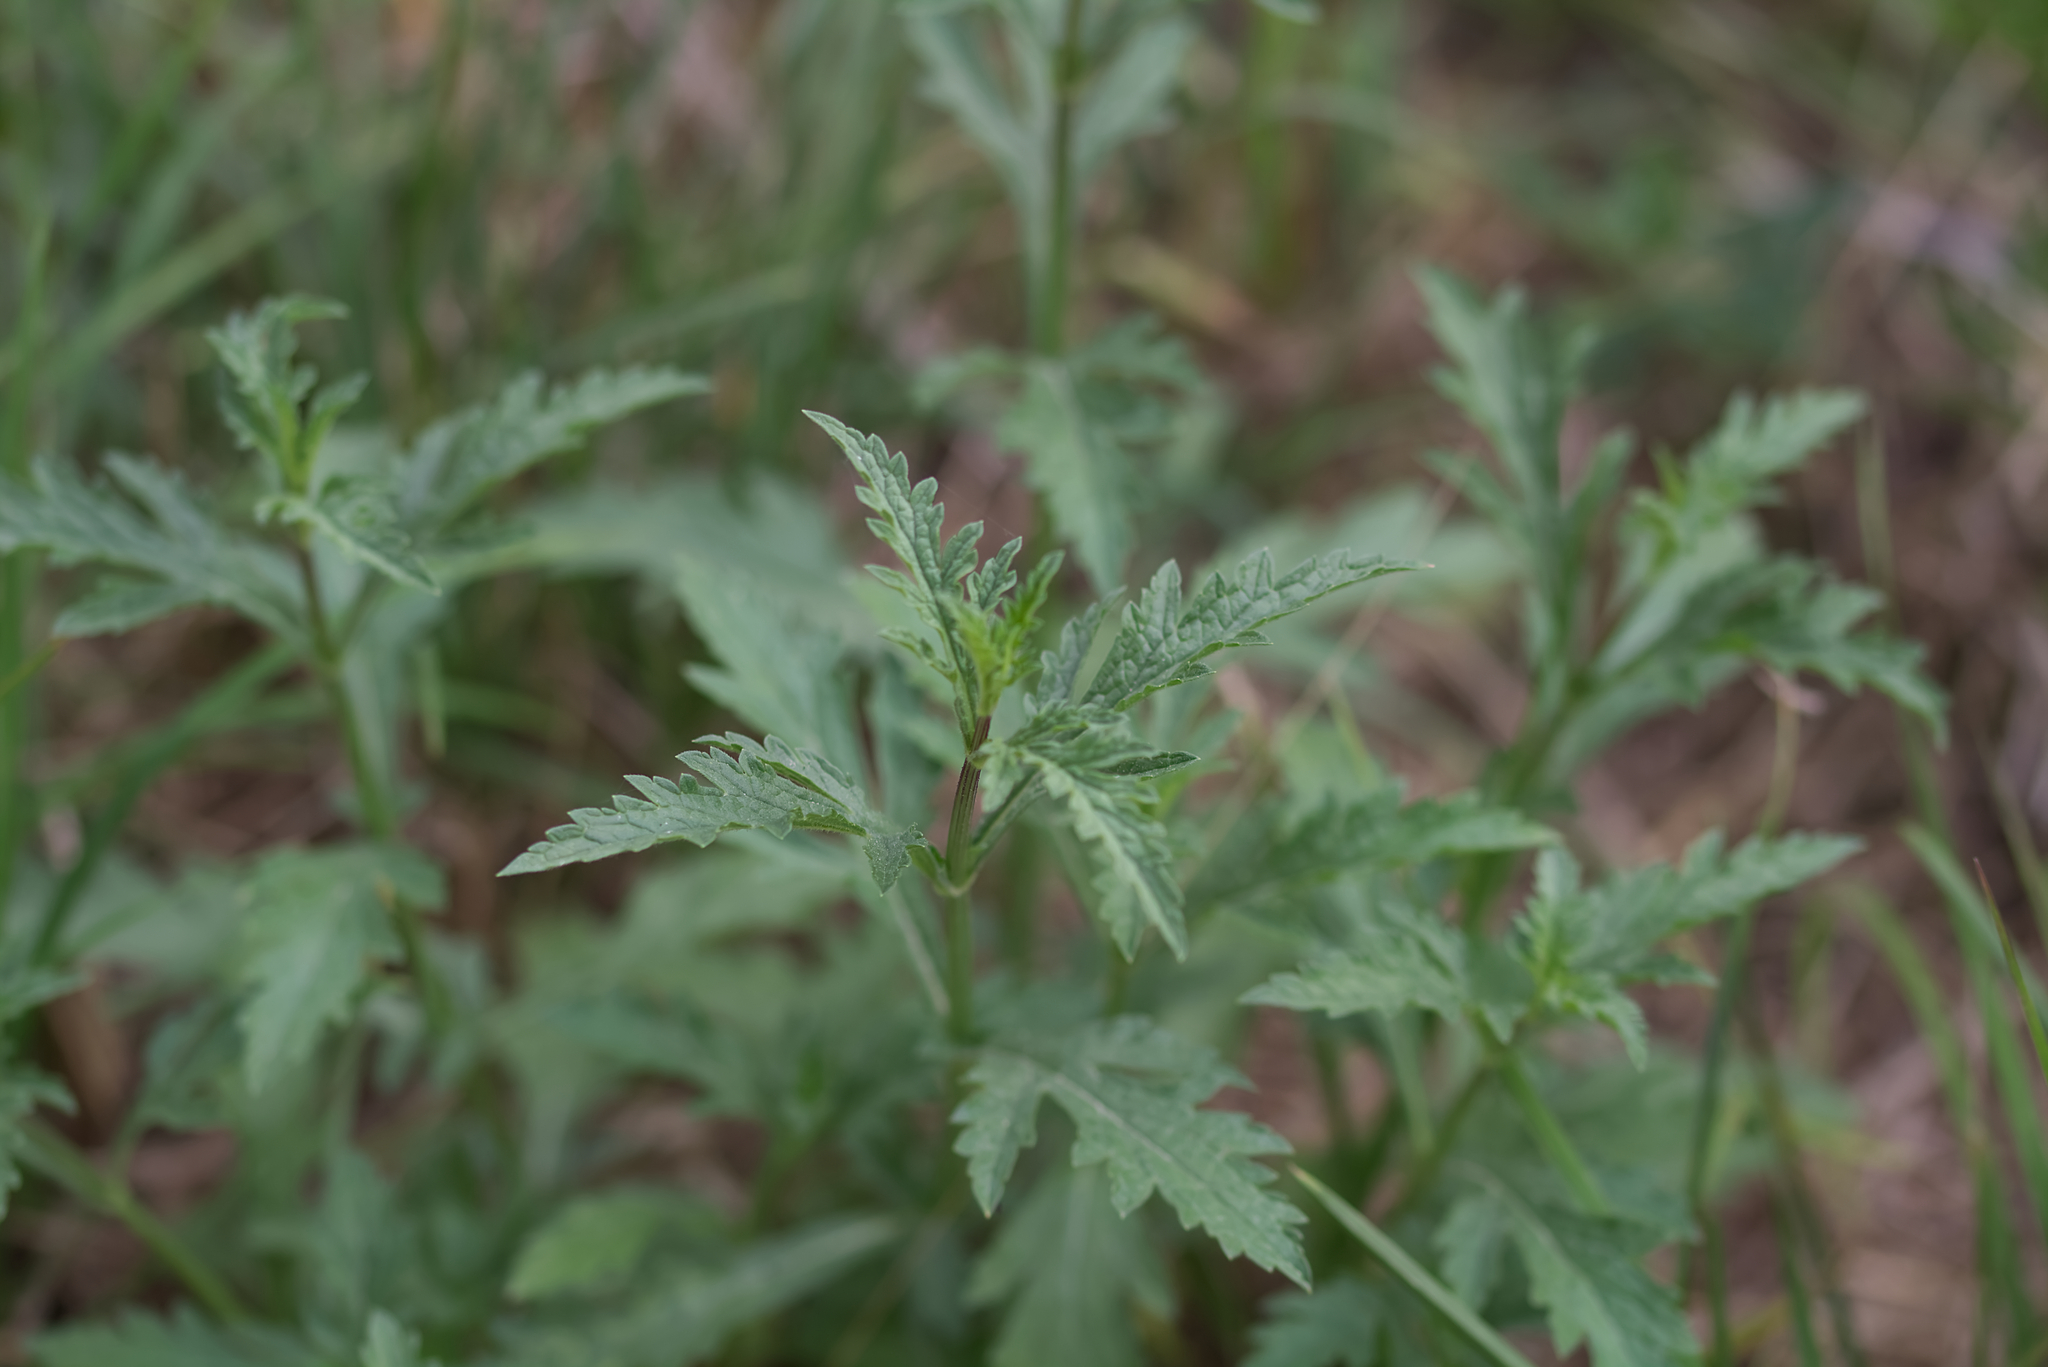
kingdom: Plantae
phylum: Tracheophyta
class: Magnoliopsida
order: Lamiales
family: Verbenaceae
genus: Verbena
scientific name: Verbena officinalis
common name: Vervain
